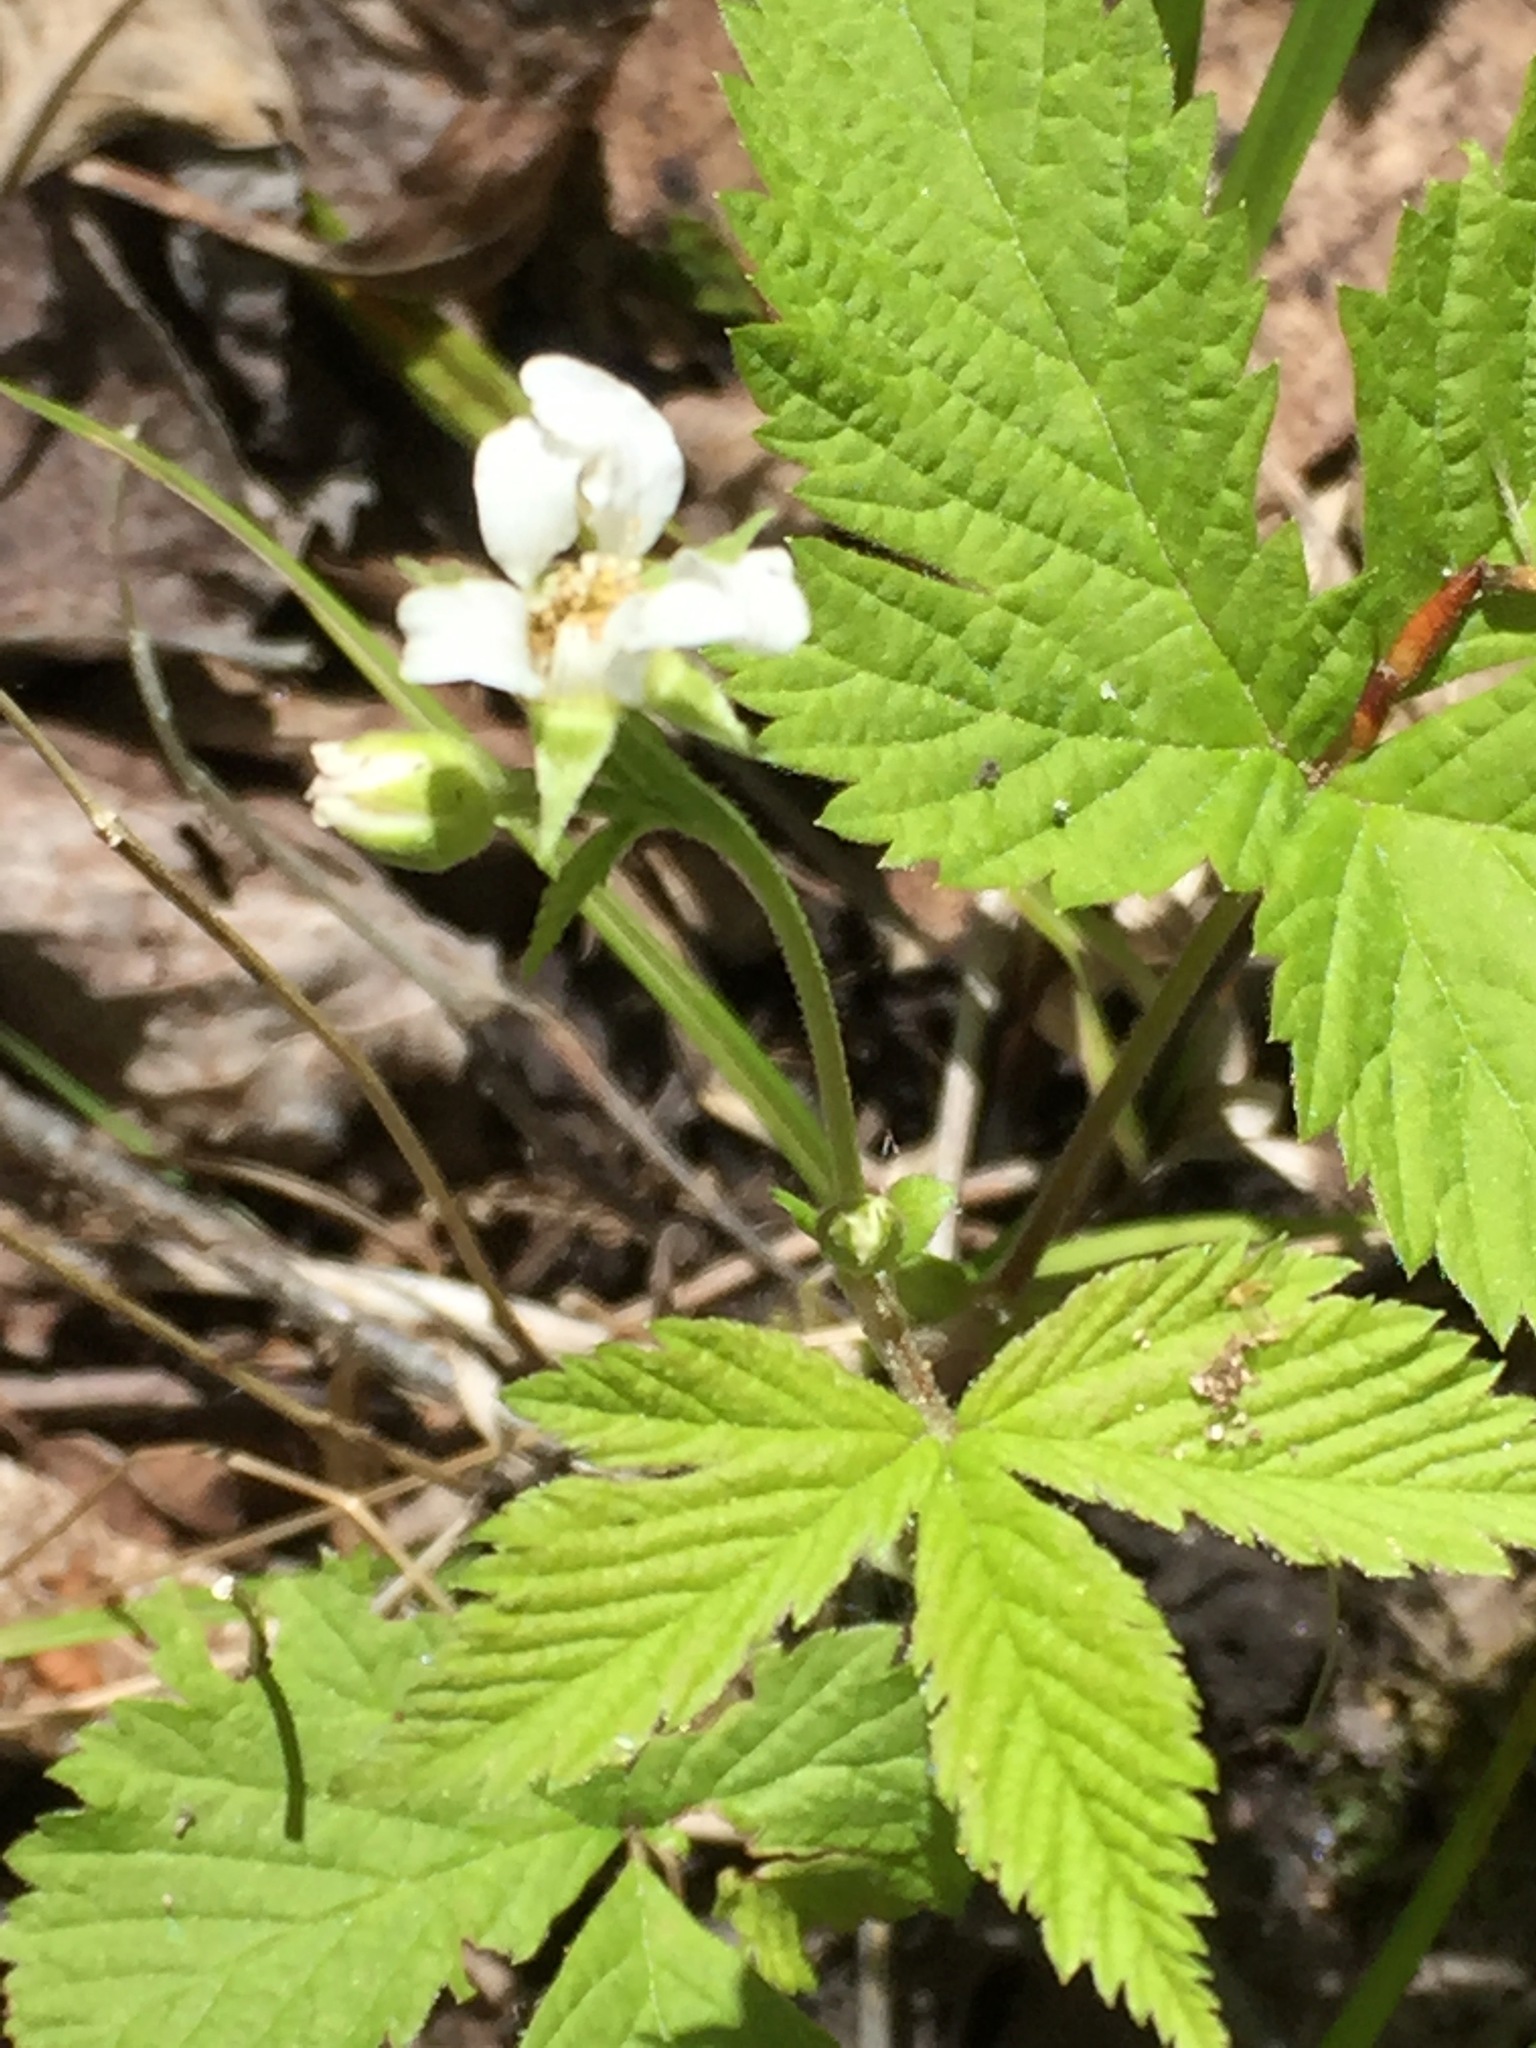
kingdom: Plantae
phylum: Tracheophyta
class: Magnoliopsida
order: Rosales
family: Rosaceae
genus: Rubus
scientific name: Rubus pubescens
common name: Dwarf raspberry
